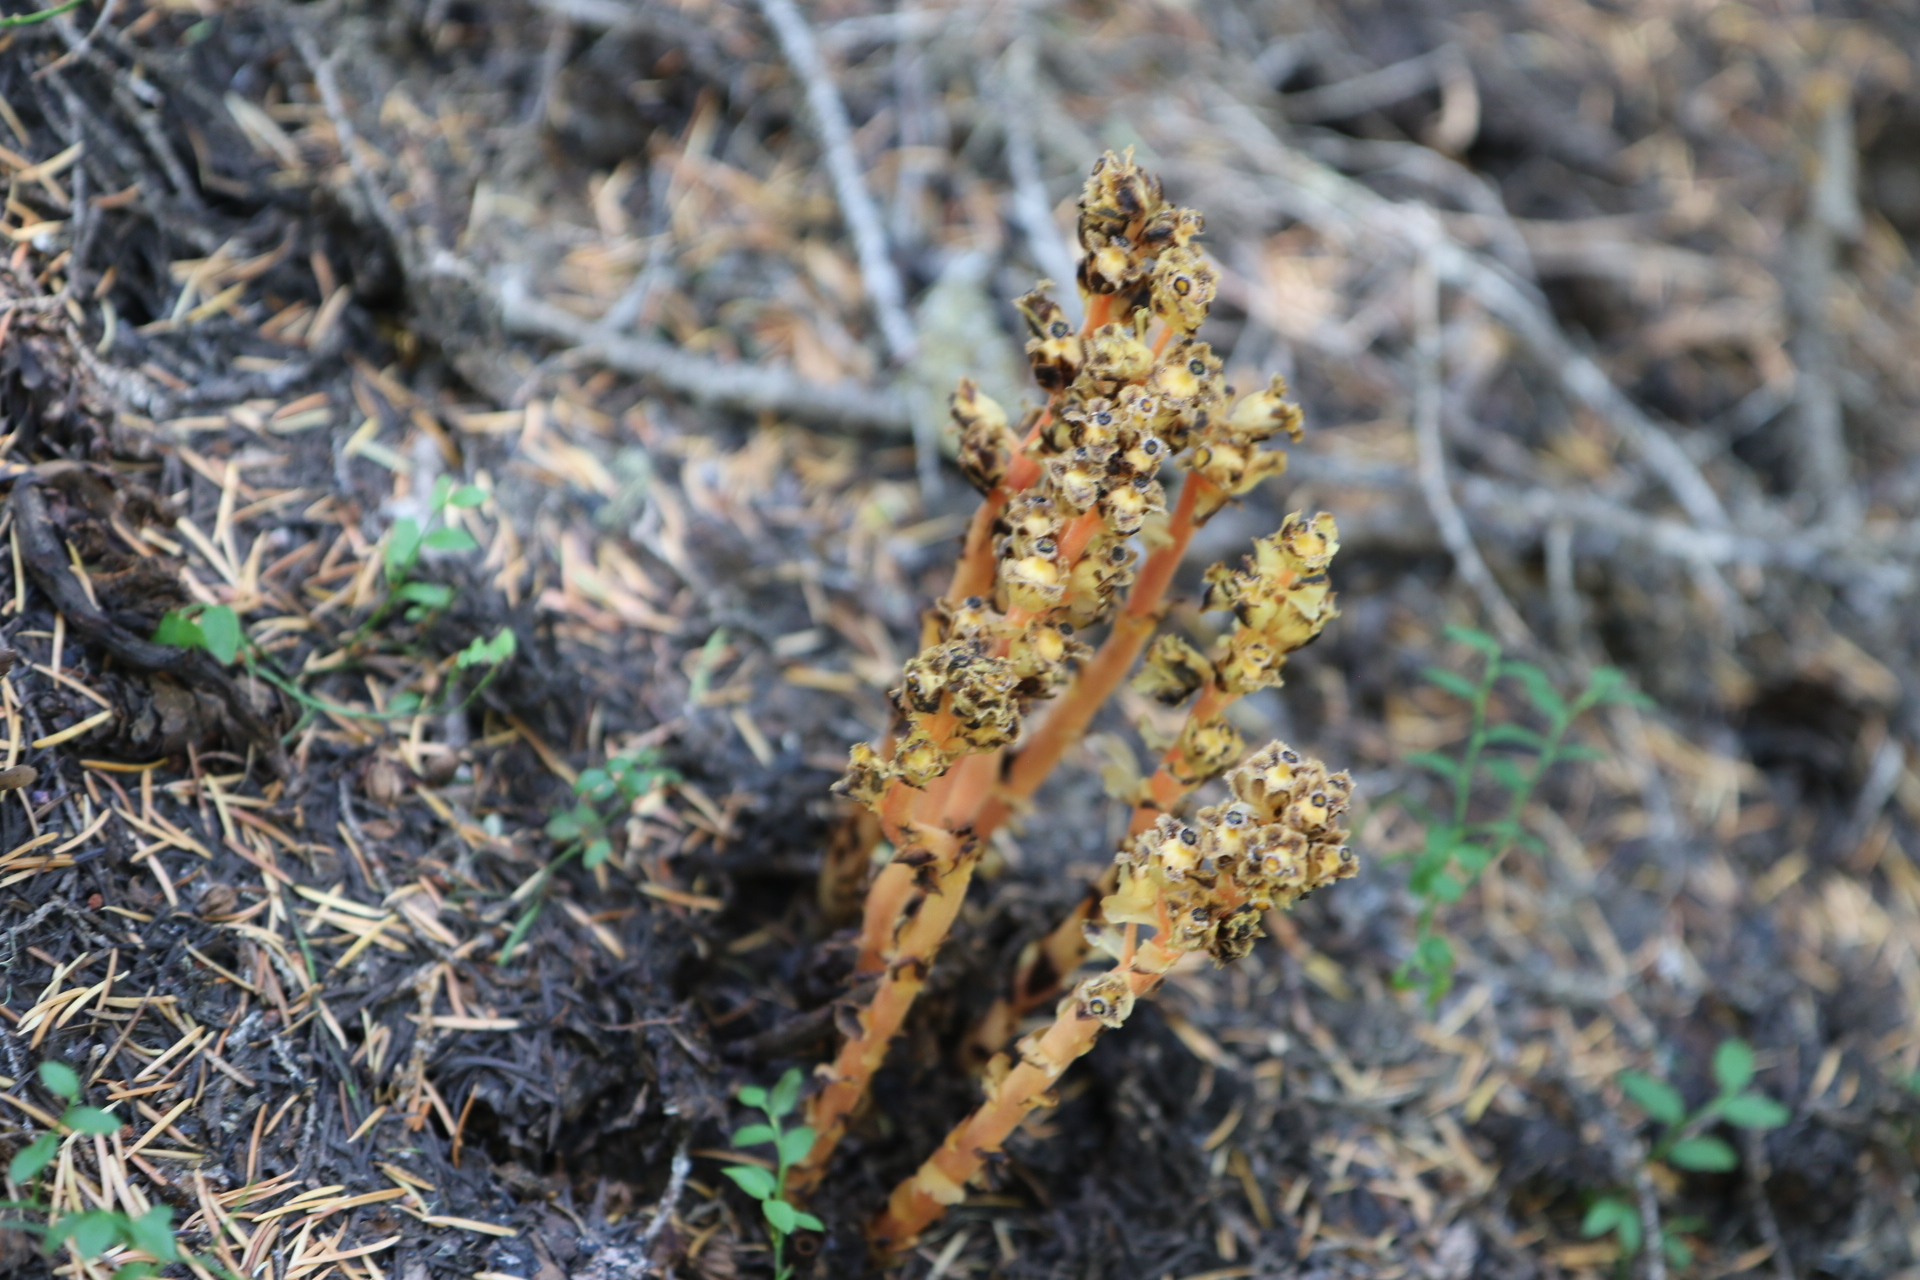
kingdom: Plantae
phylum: Tracheophyta
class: Magnoliopsida
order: Ericales
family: Ericaceae
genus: Hypopitys
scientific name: Hypopitys monotropa
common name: Yellow bird's-nest
